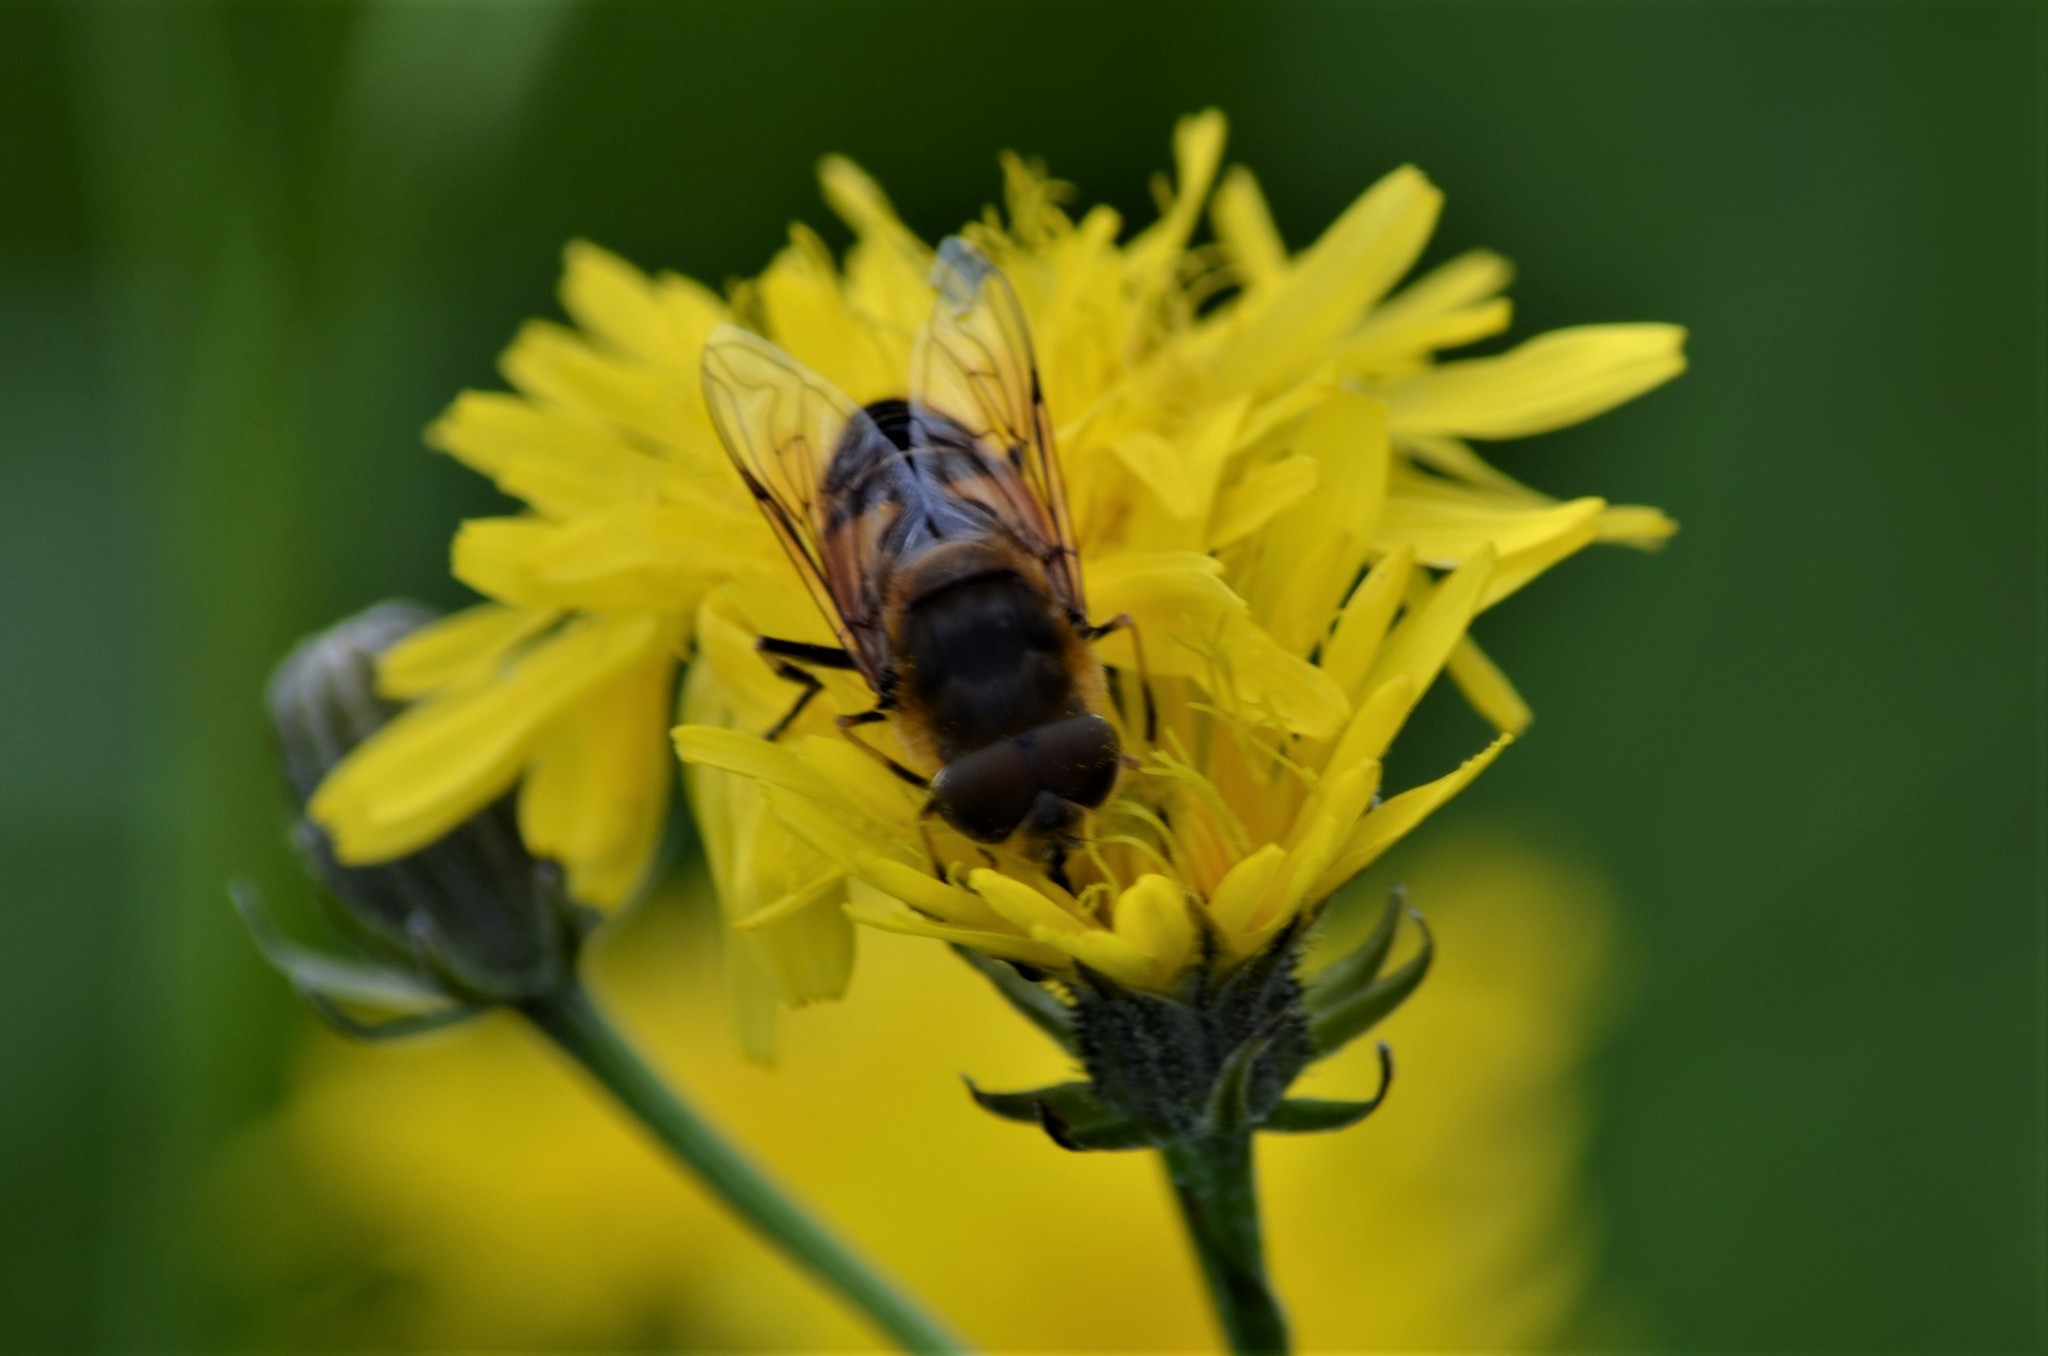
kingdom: Animalia
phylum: Arthropoda
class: Insecta
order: Diptera
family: Syrphidae
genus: Eristalis
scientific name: Eristalis pertinax
